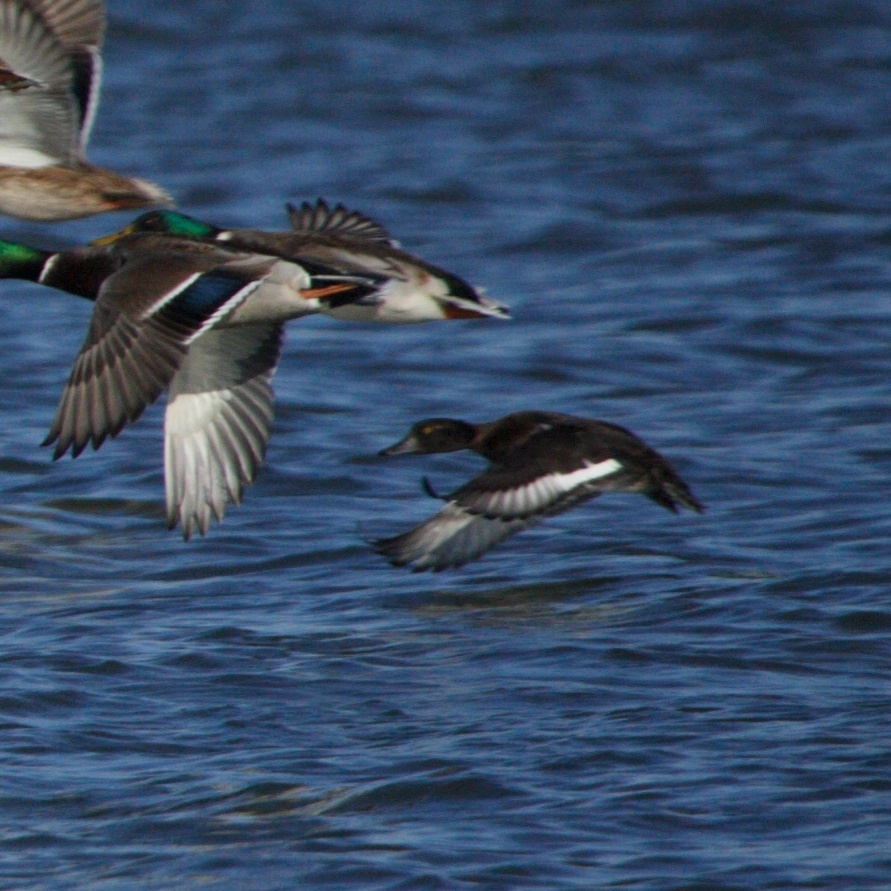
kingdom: Animalia
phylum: Chordata
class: Aves
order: Anseriformes
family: Anatidae
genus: Aythya
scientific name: Aythya fuligula
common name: Tufted duck
